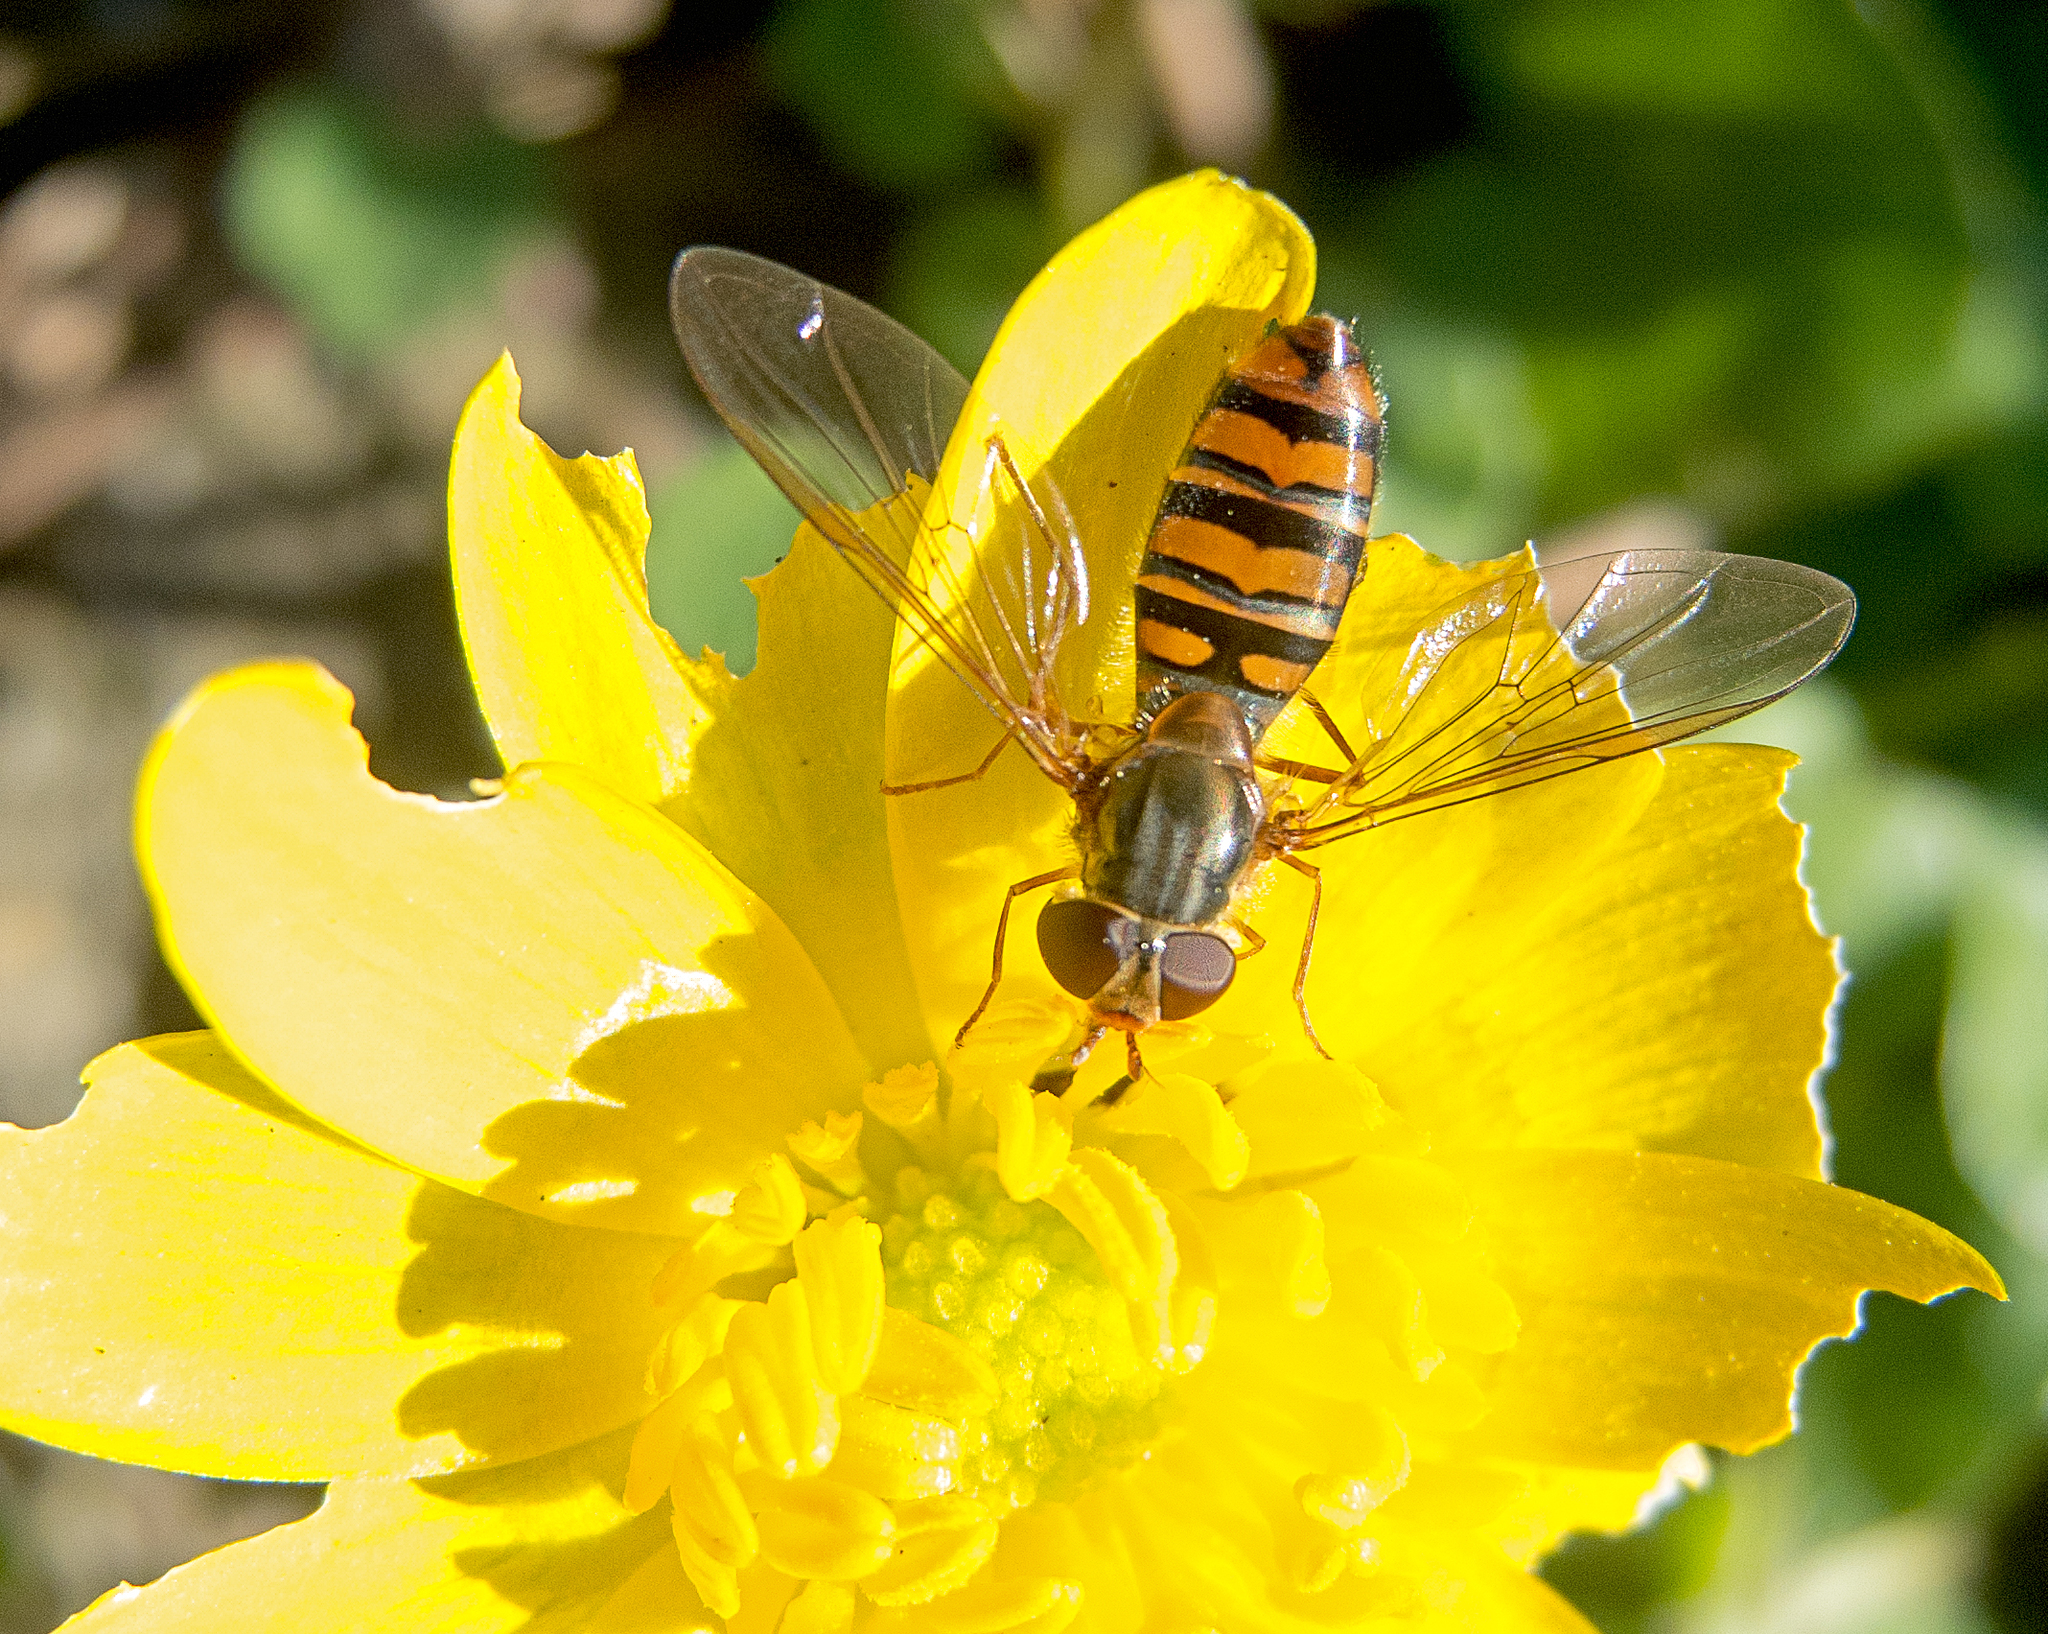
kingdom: Animalia
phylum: Arthropoda
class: Insecta
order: Diptera
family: Syrphidae
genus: Episyrphus
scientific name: Episyrphus balteatus
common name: Marmalade hoverfly
